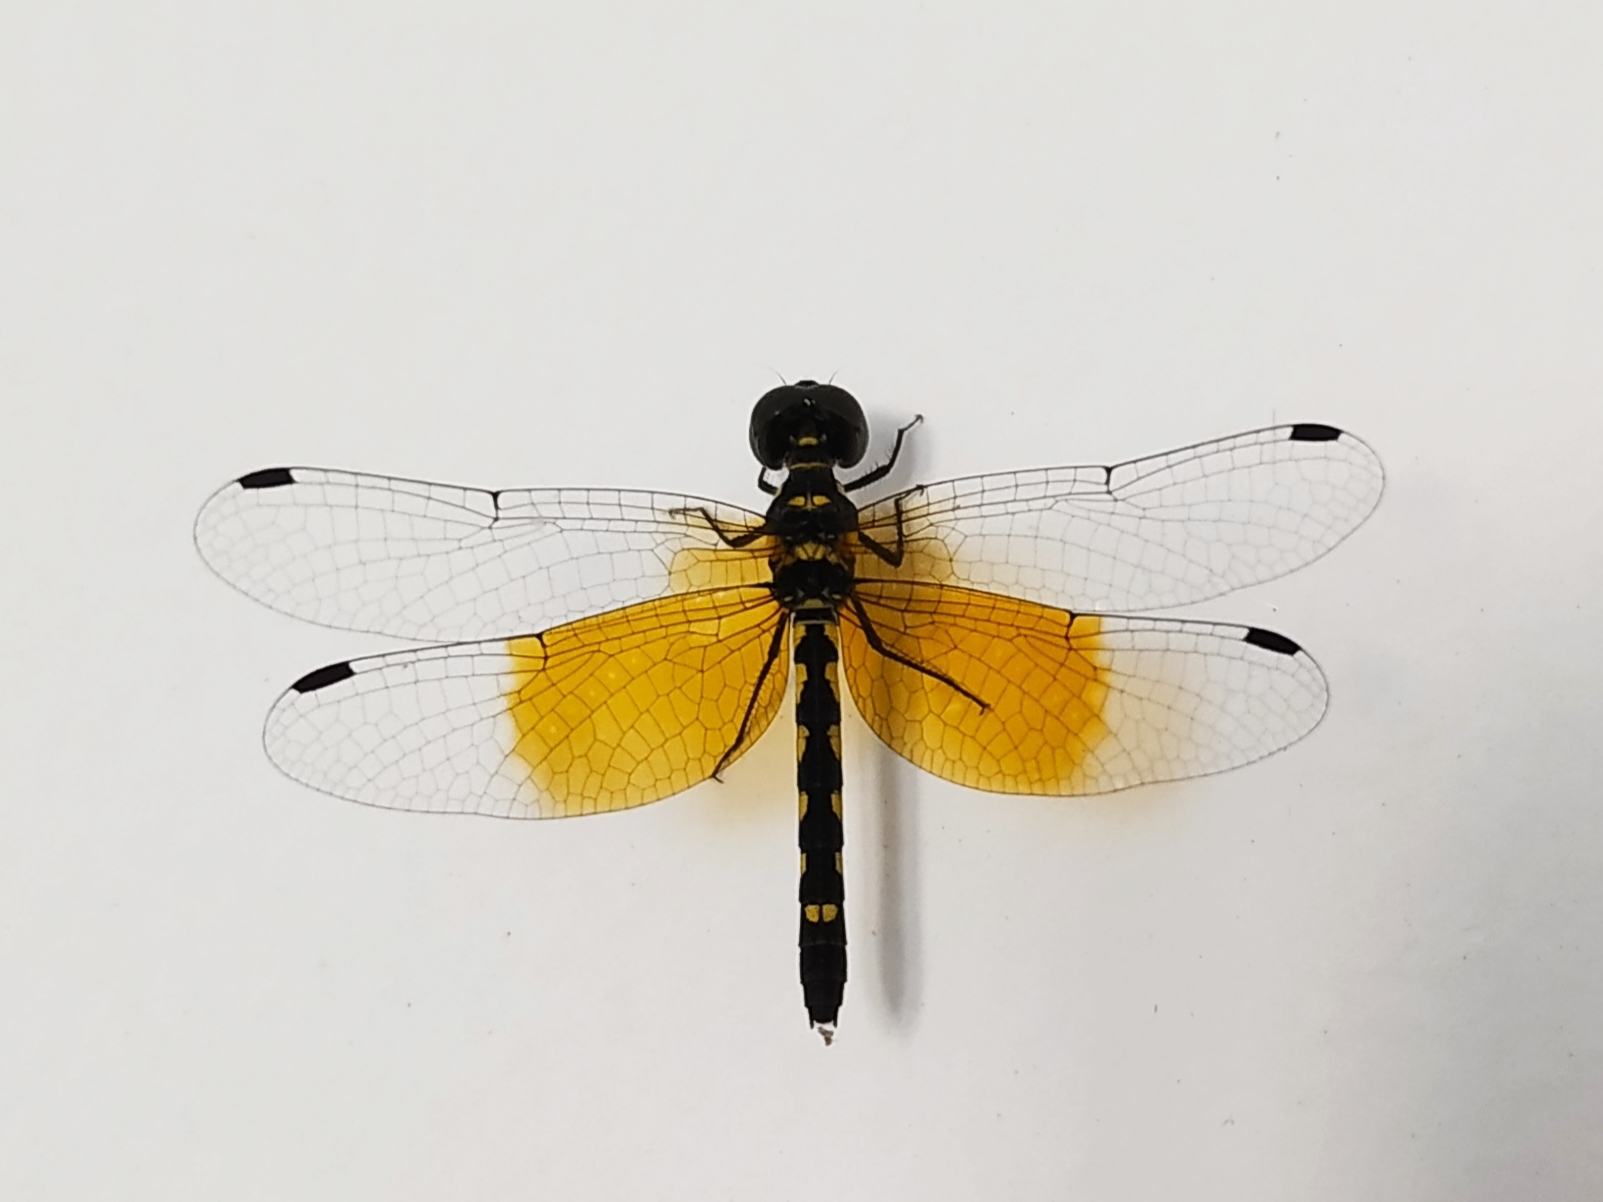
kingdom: Animalia
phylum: Arthropoda
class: Insecta
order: Odonata
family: Libellulidae
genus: Tetrathemis
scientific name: Tetrathemis platyptera
